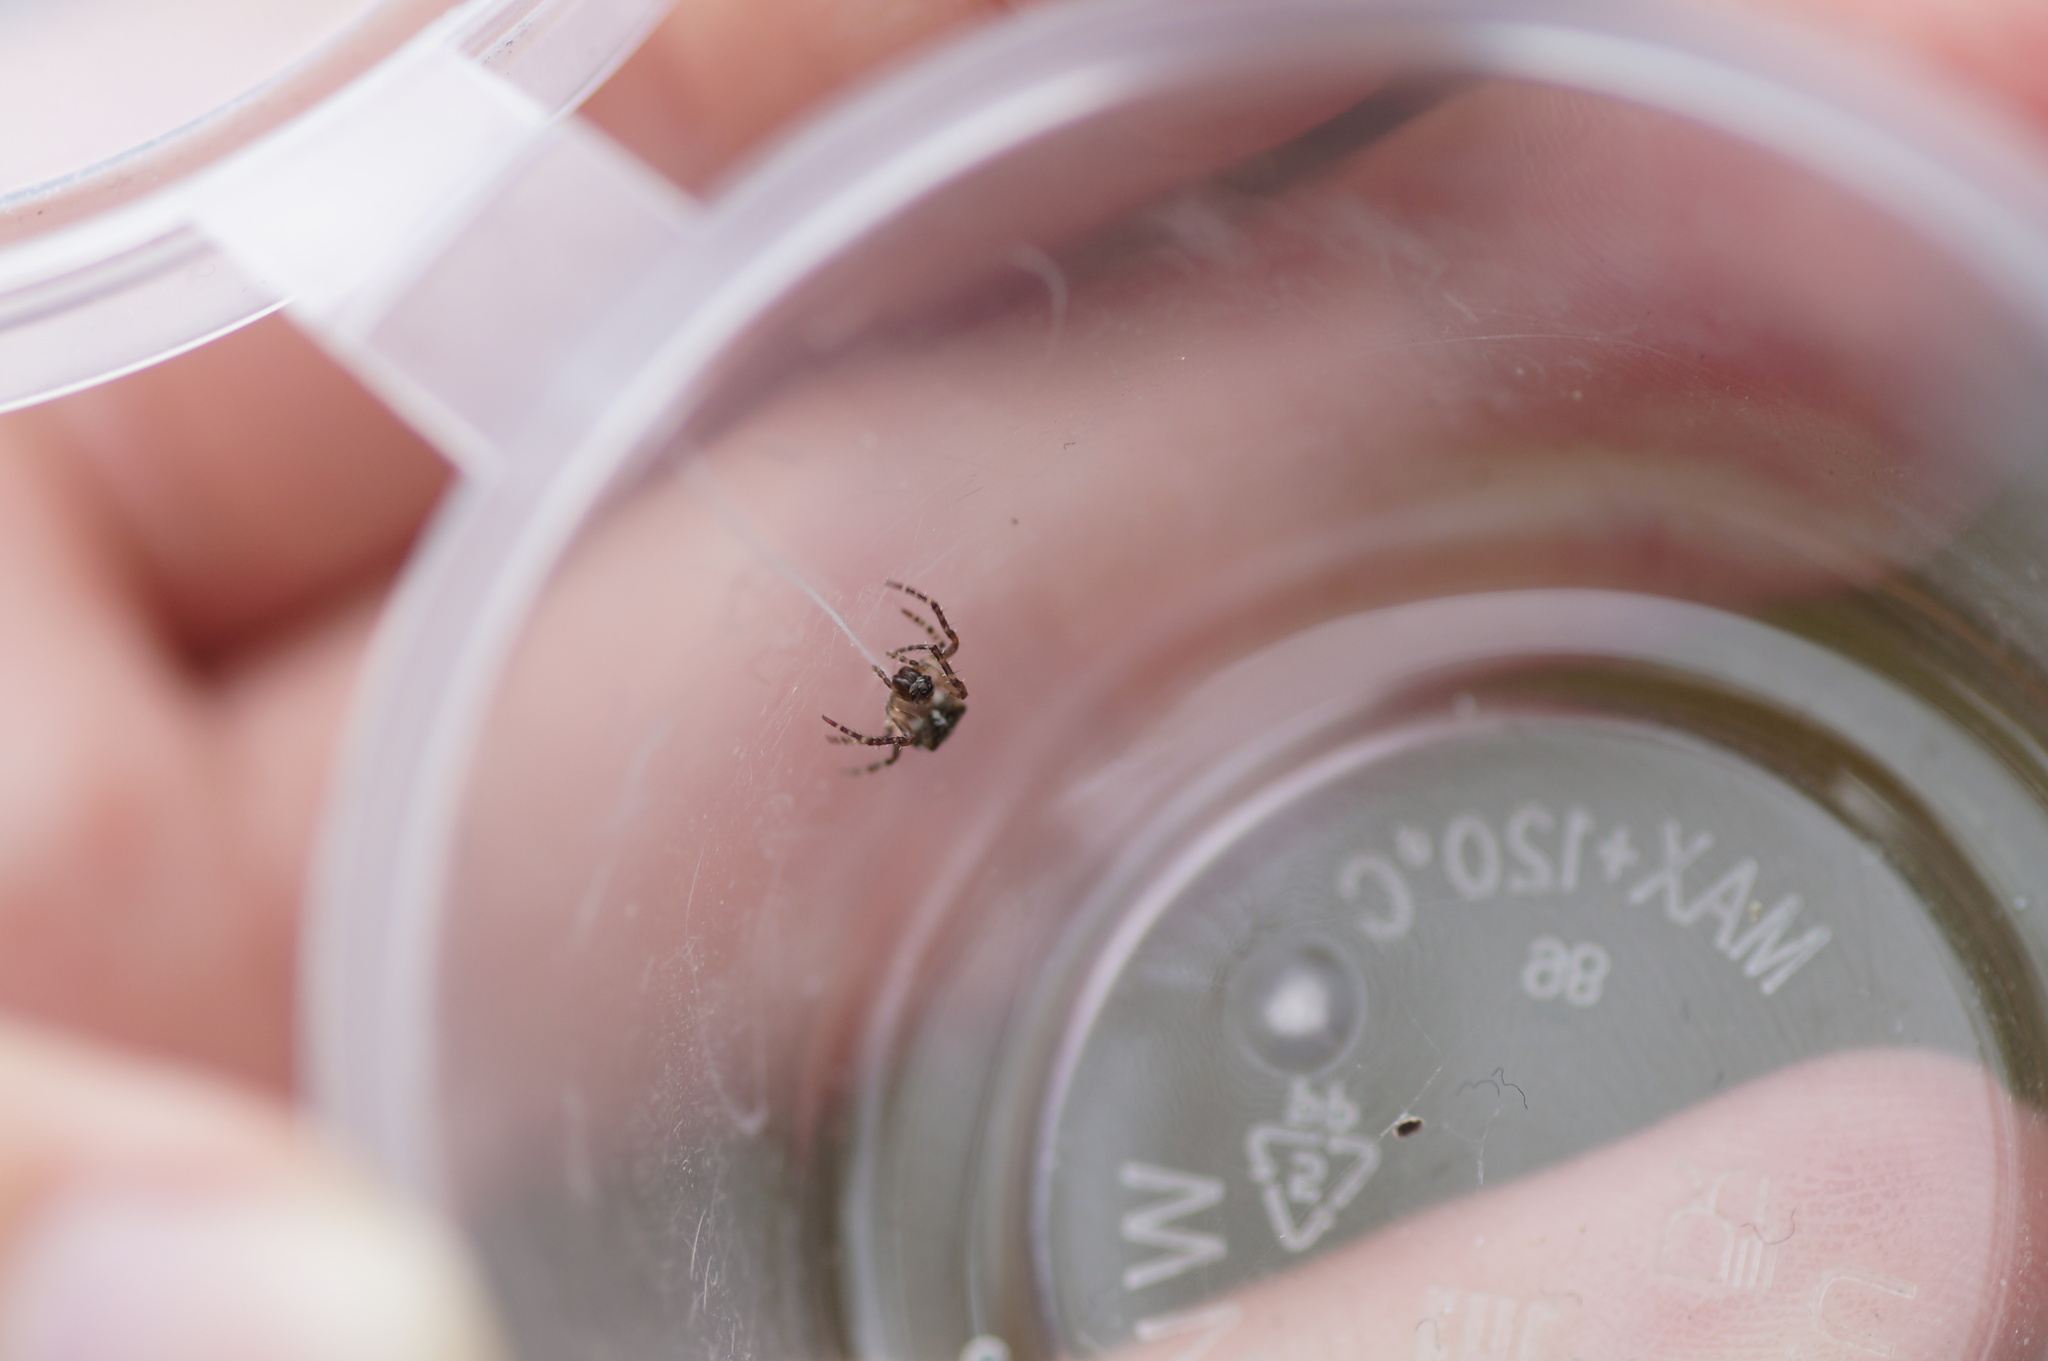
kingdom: Animalia
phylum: Arthropoda
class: Arachnida
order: Araneae
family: Araneidae
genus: Gibbaranea
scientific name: Gibbaranea omoeda
